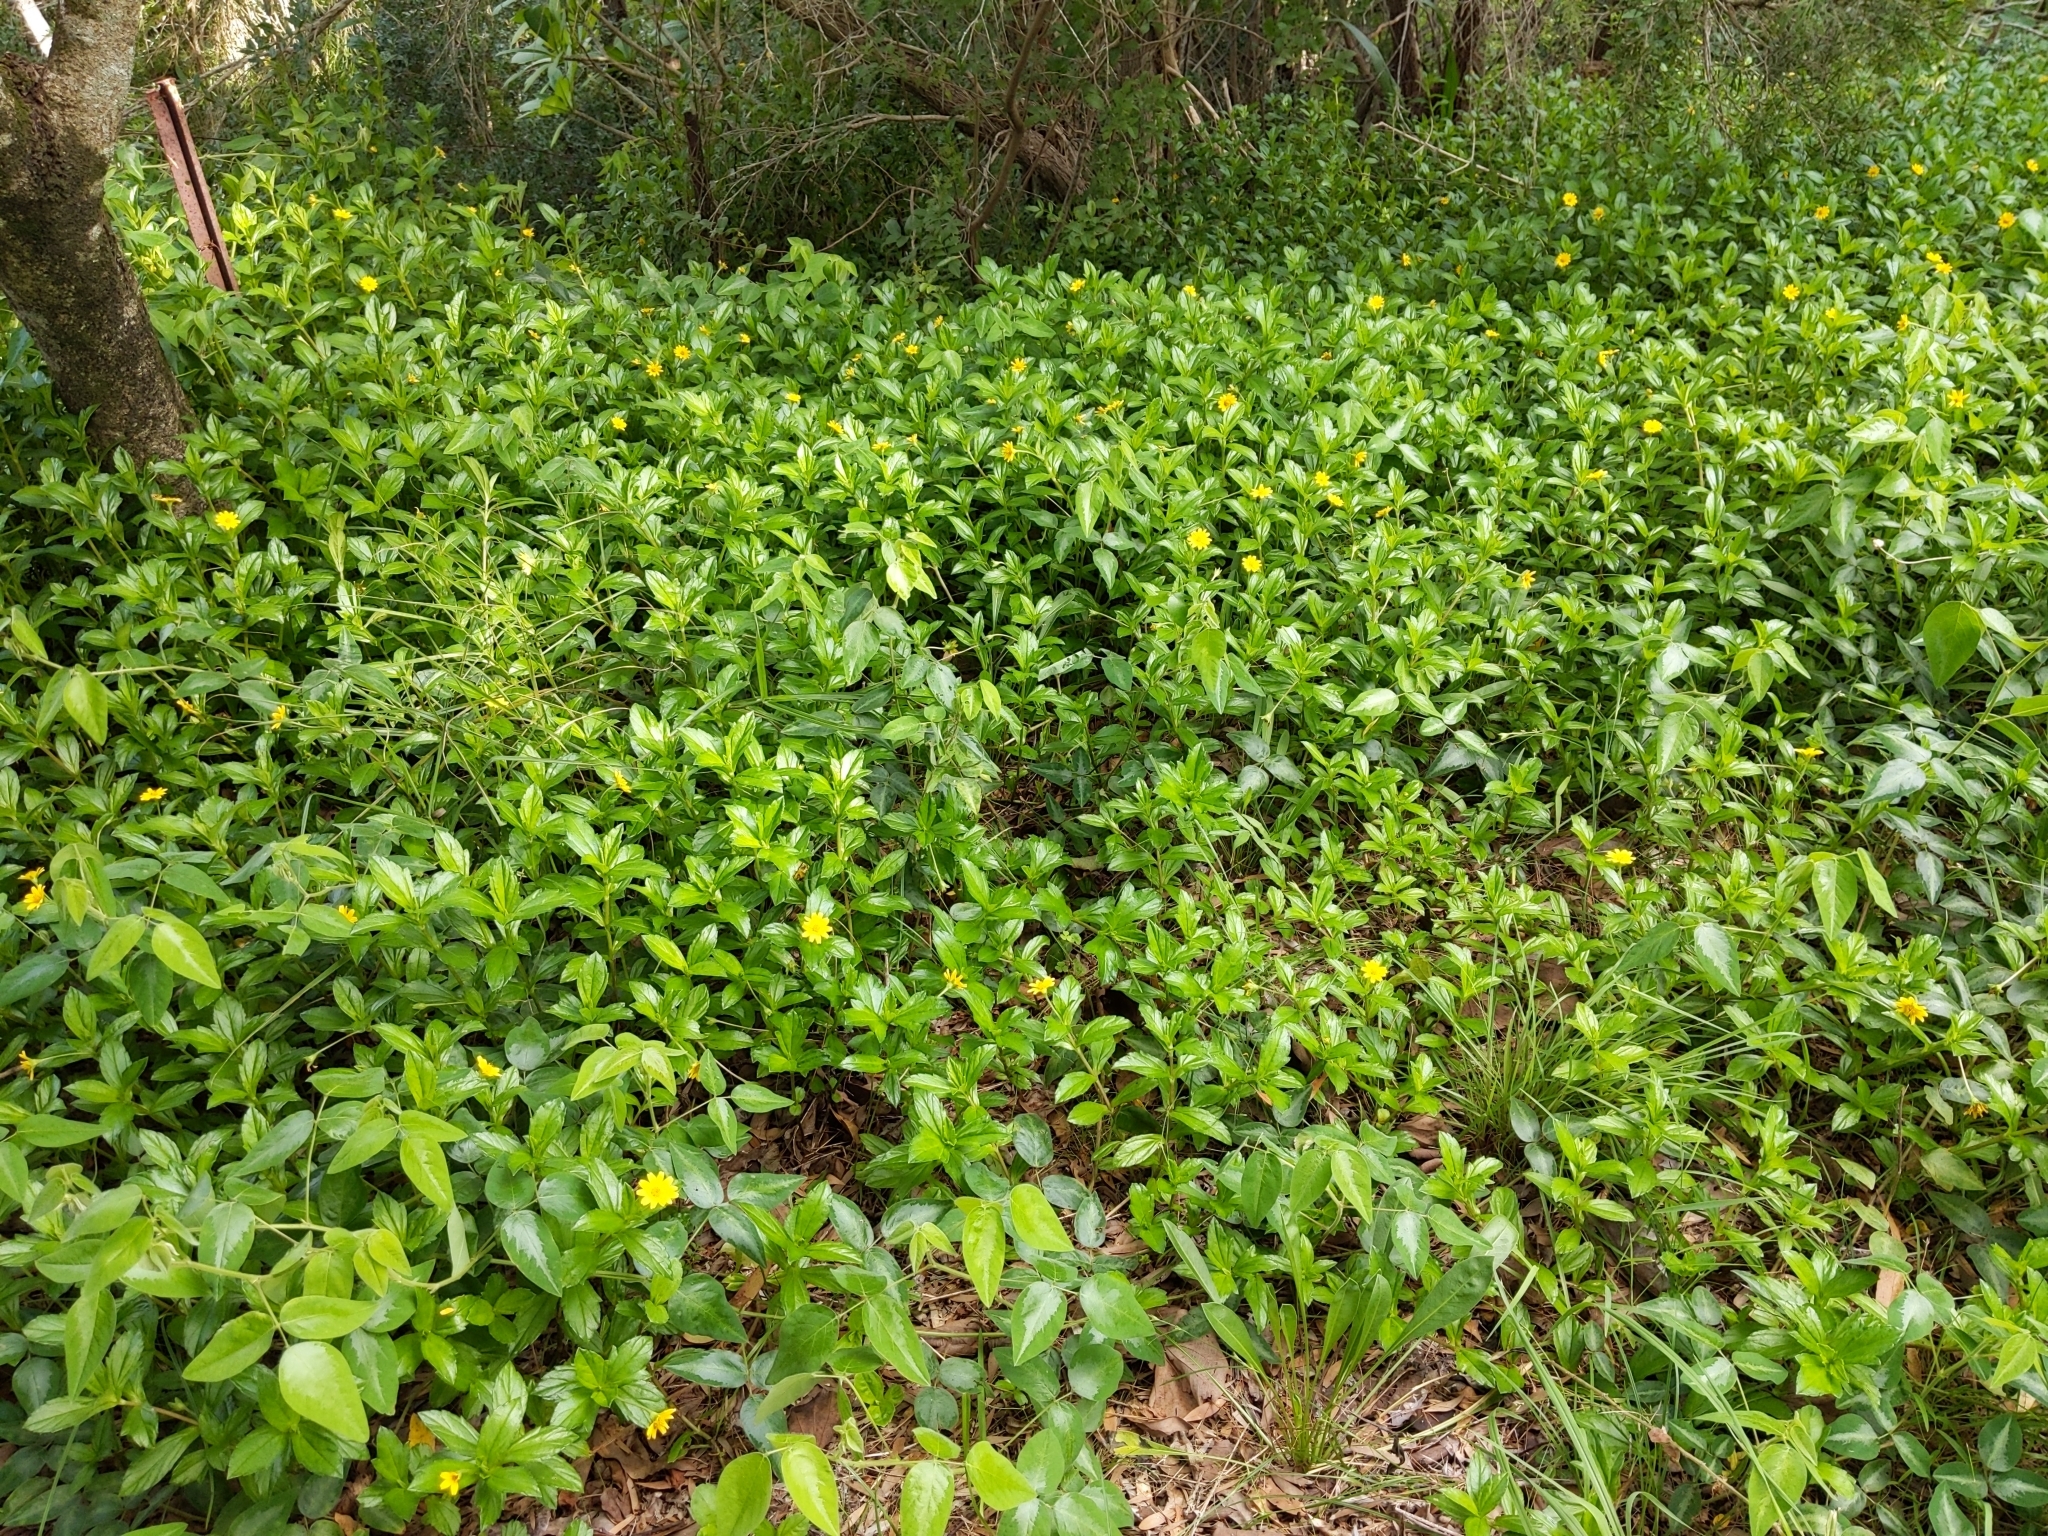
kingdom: Plantae
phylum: Tracheophyta
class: Magnoliopsida
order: Asterales
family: Asteraceae
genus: Sphagneticola
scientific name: Sphagneticola trilobata
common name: Bay biscayne creeping-oxeye
